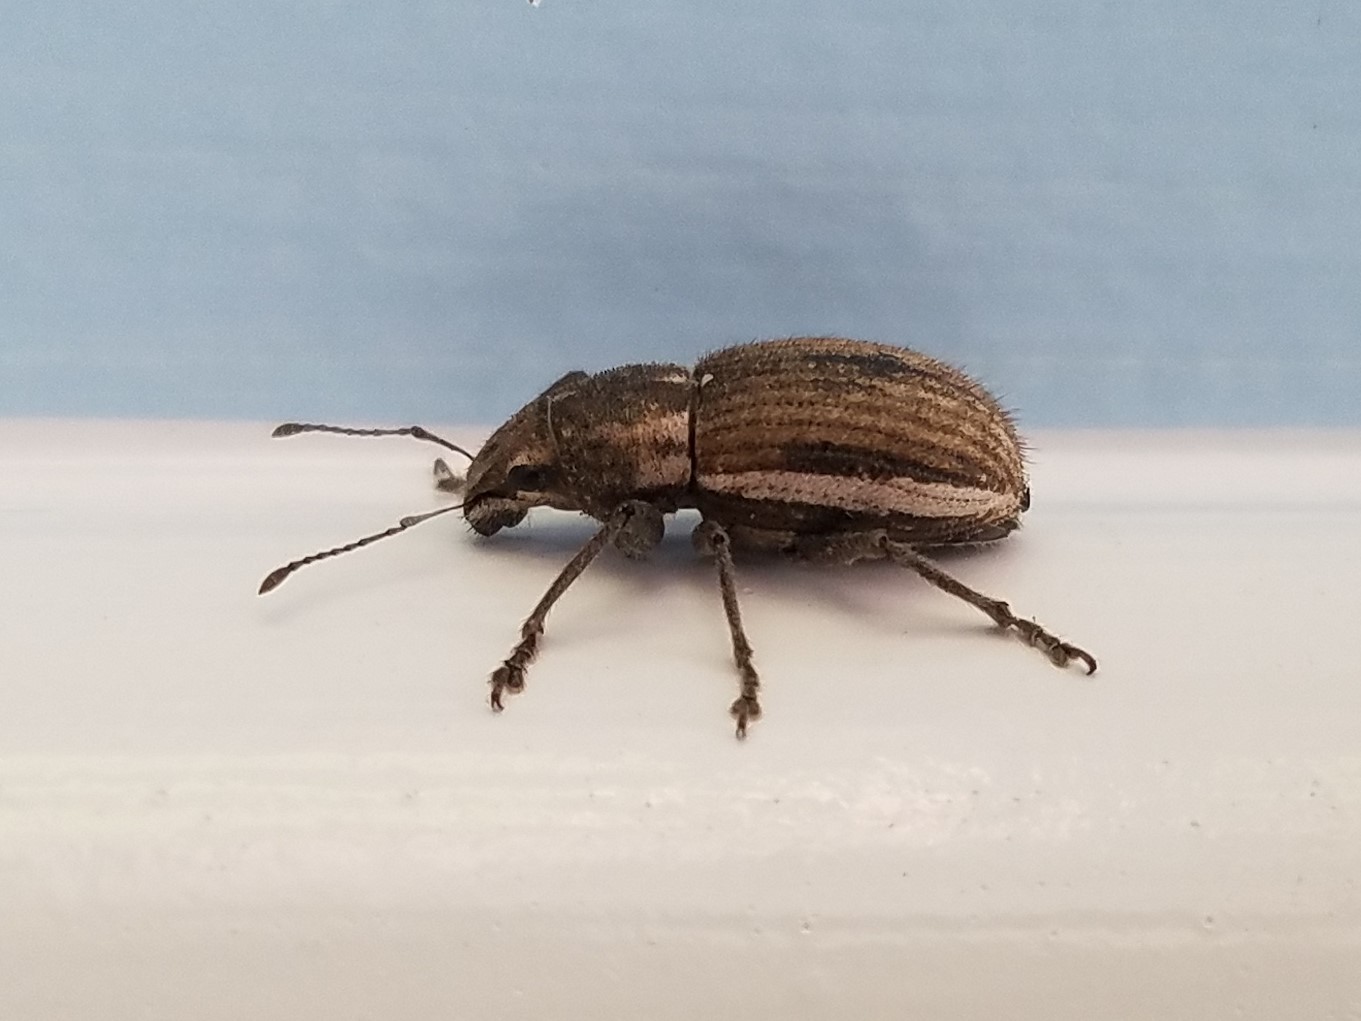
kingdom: Animalia
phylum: Arthropoda
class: Insecta
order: Coleoptera
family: Curculionidae
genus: Naupactus
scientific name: Naupactus leucoloma
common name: Whitefringed beetle
